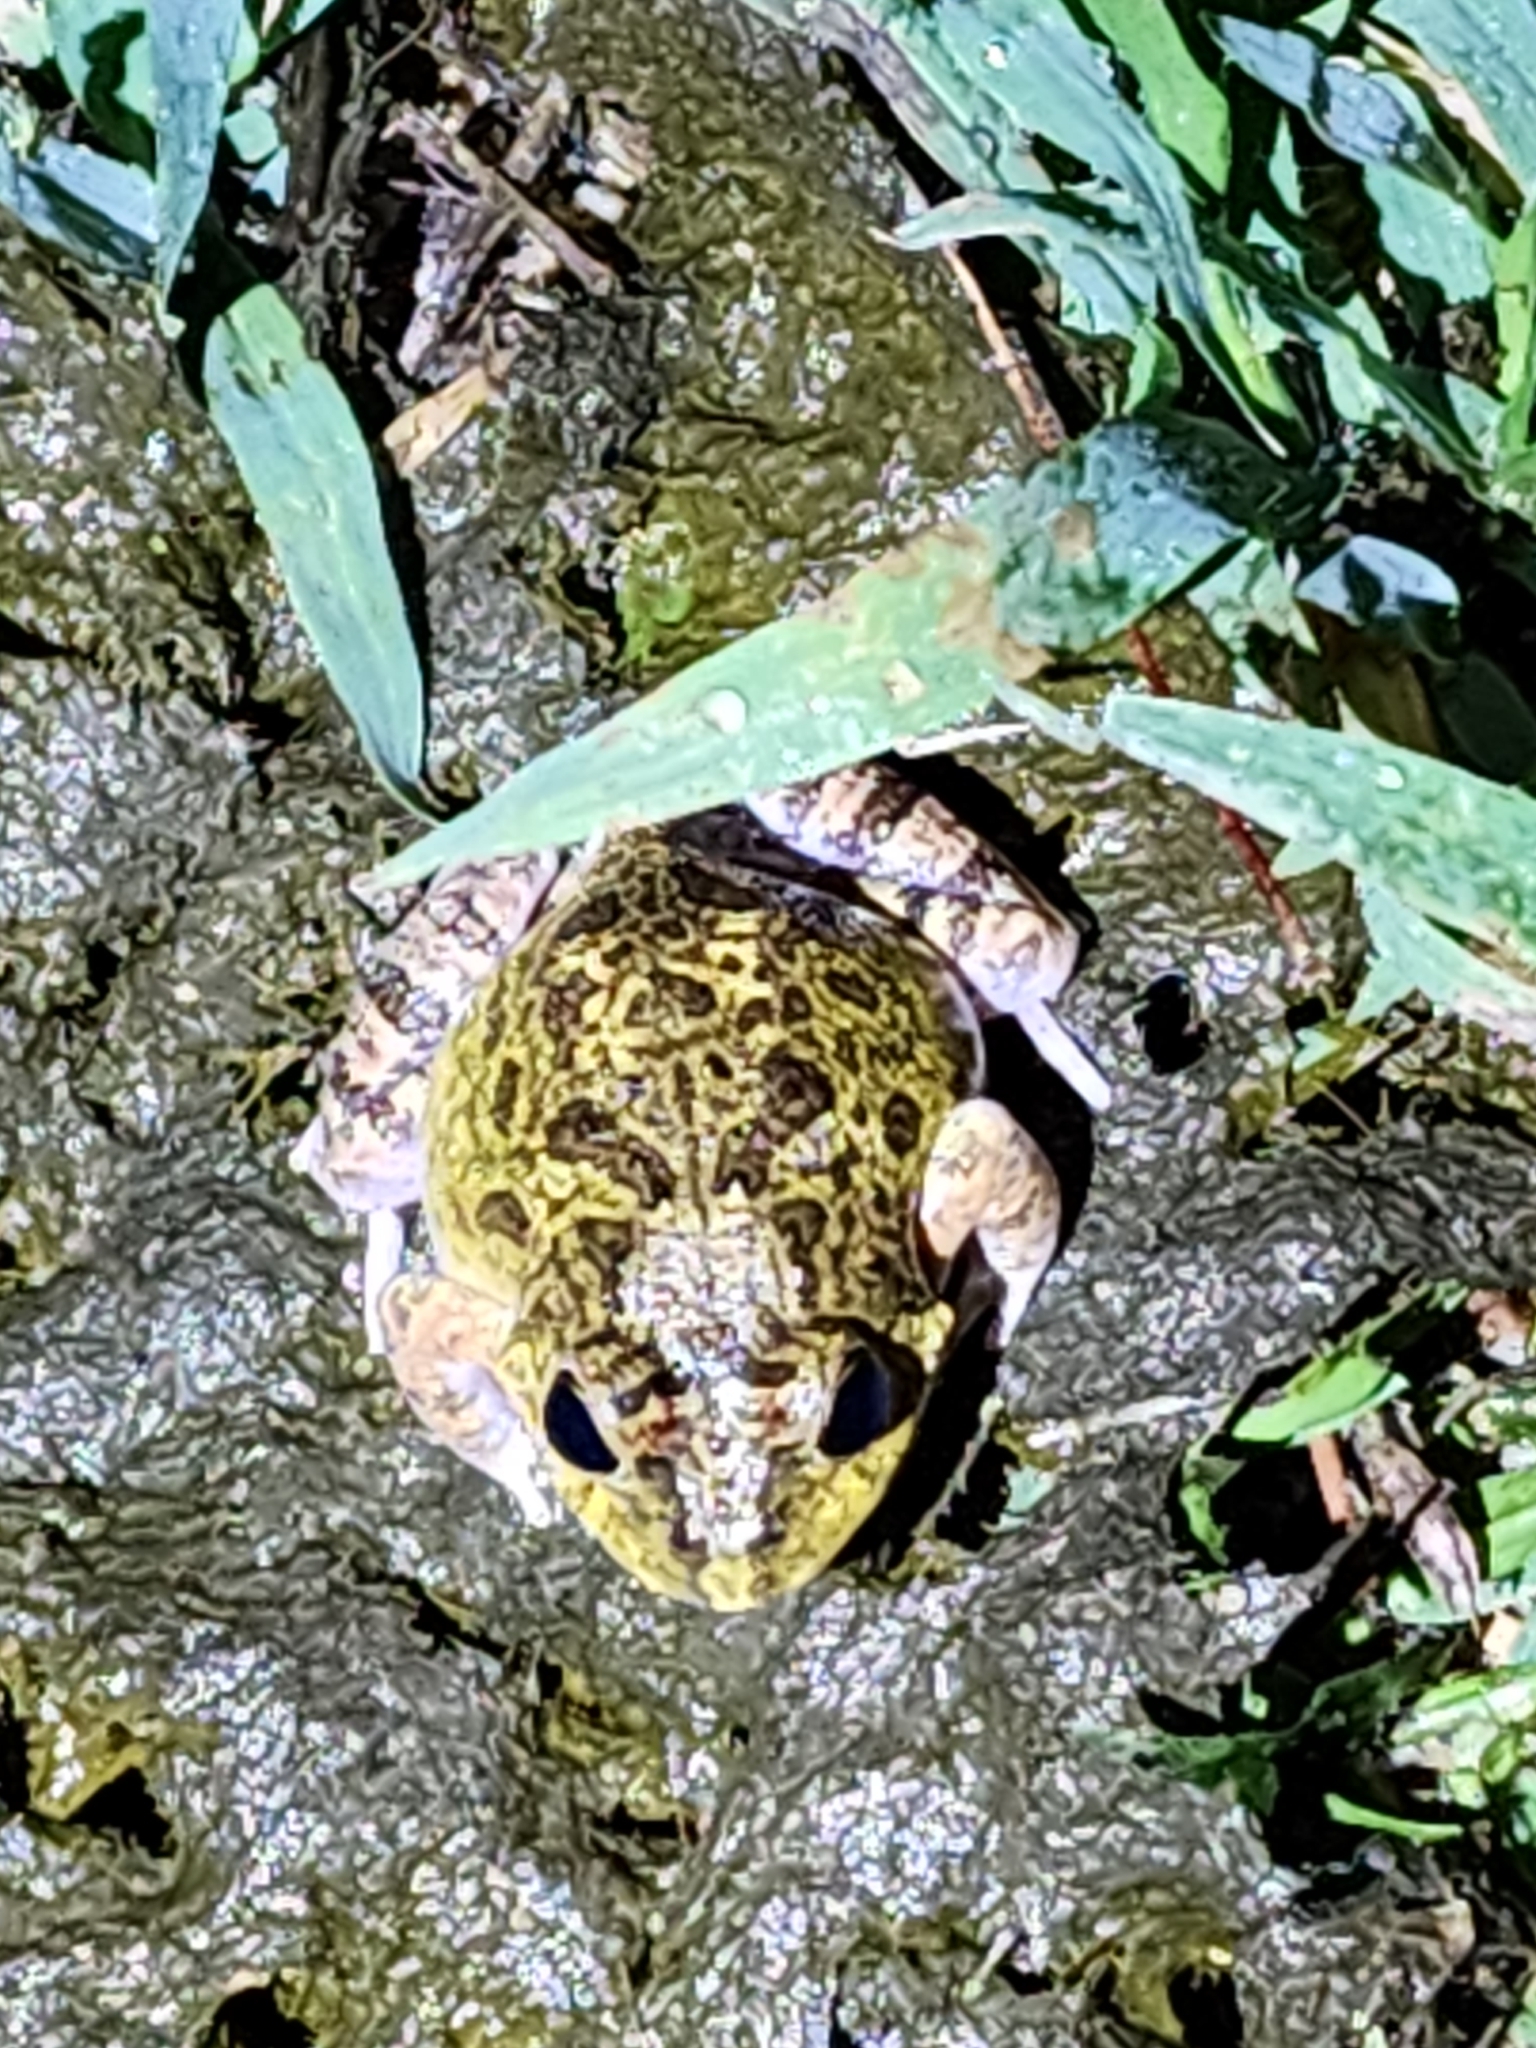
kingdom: Animalia
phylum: Chordata
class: Amphibia
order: Anura
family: Limnodynastidae
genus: Platyplectrum
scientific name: Platyplectrum ornatum
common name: Ornate burrowing frog
